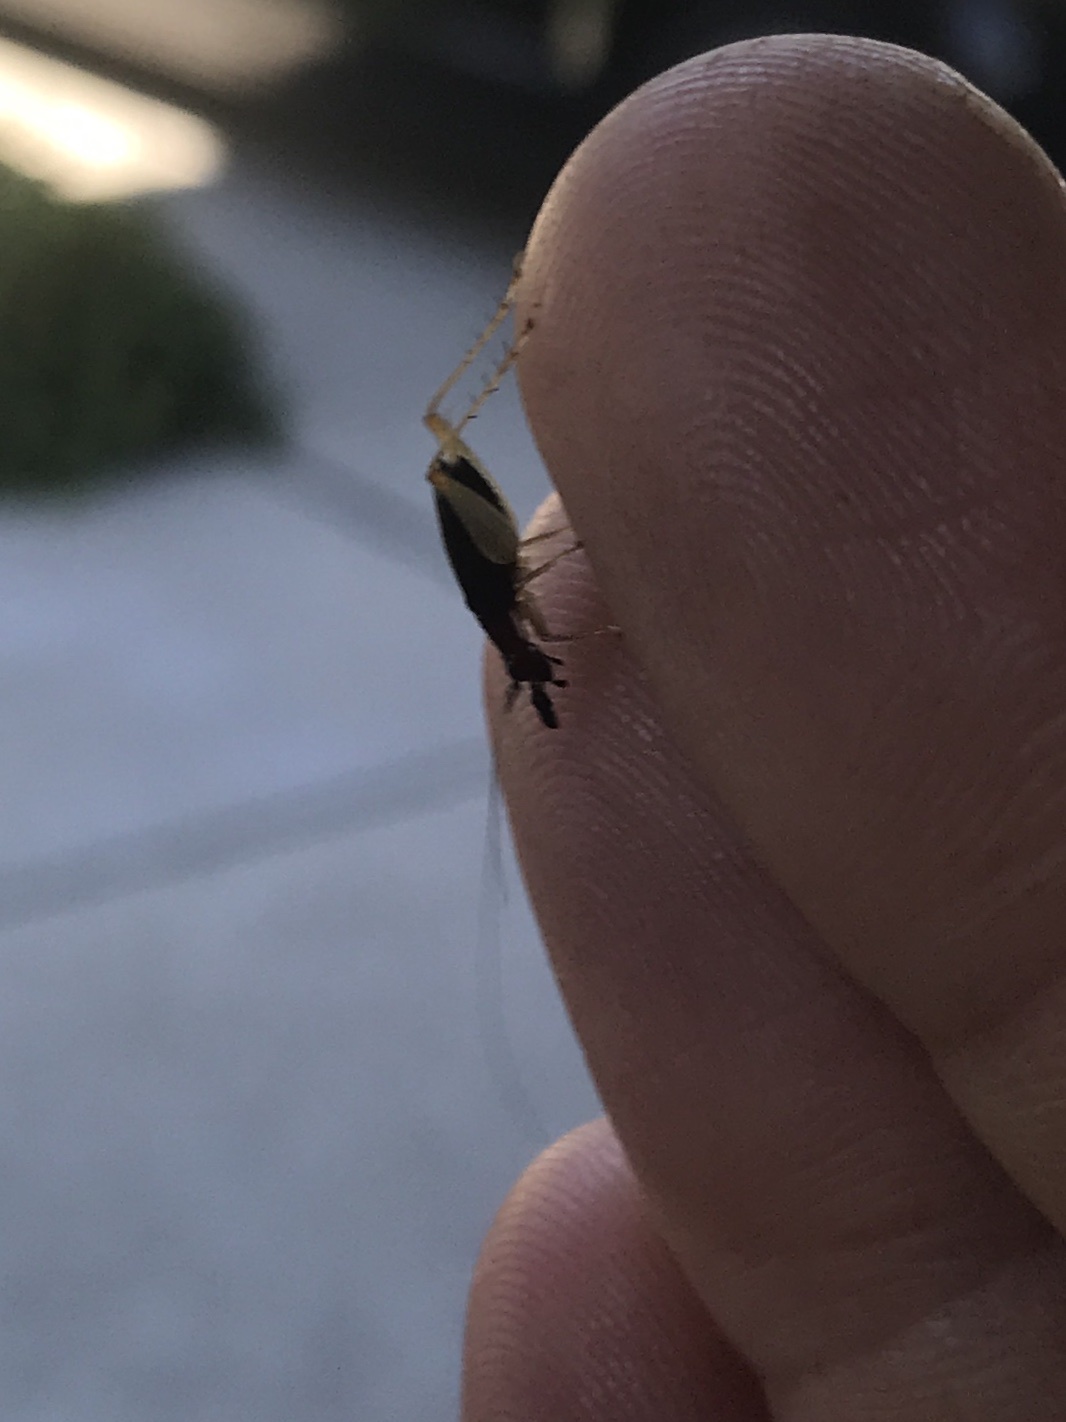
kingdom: Animalia
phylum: Arthropoda
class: Insecta
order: Orthoptera
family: Trigonidiidae
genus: Phyllopalpus
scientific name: Phyllopalpus pulchellus
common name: Handsome trig
